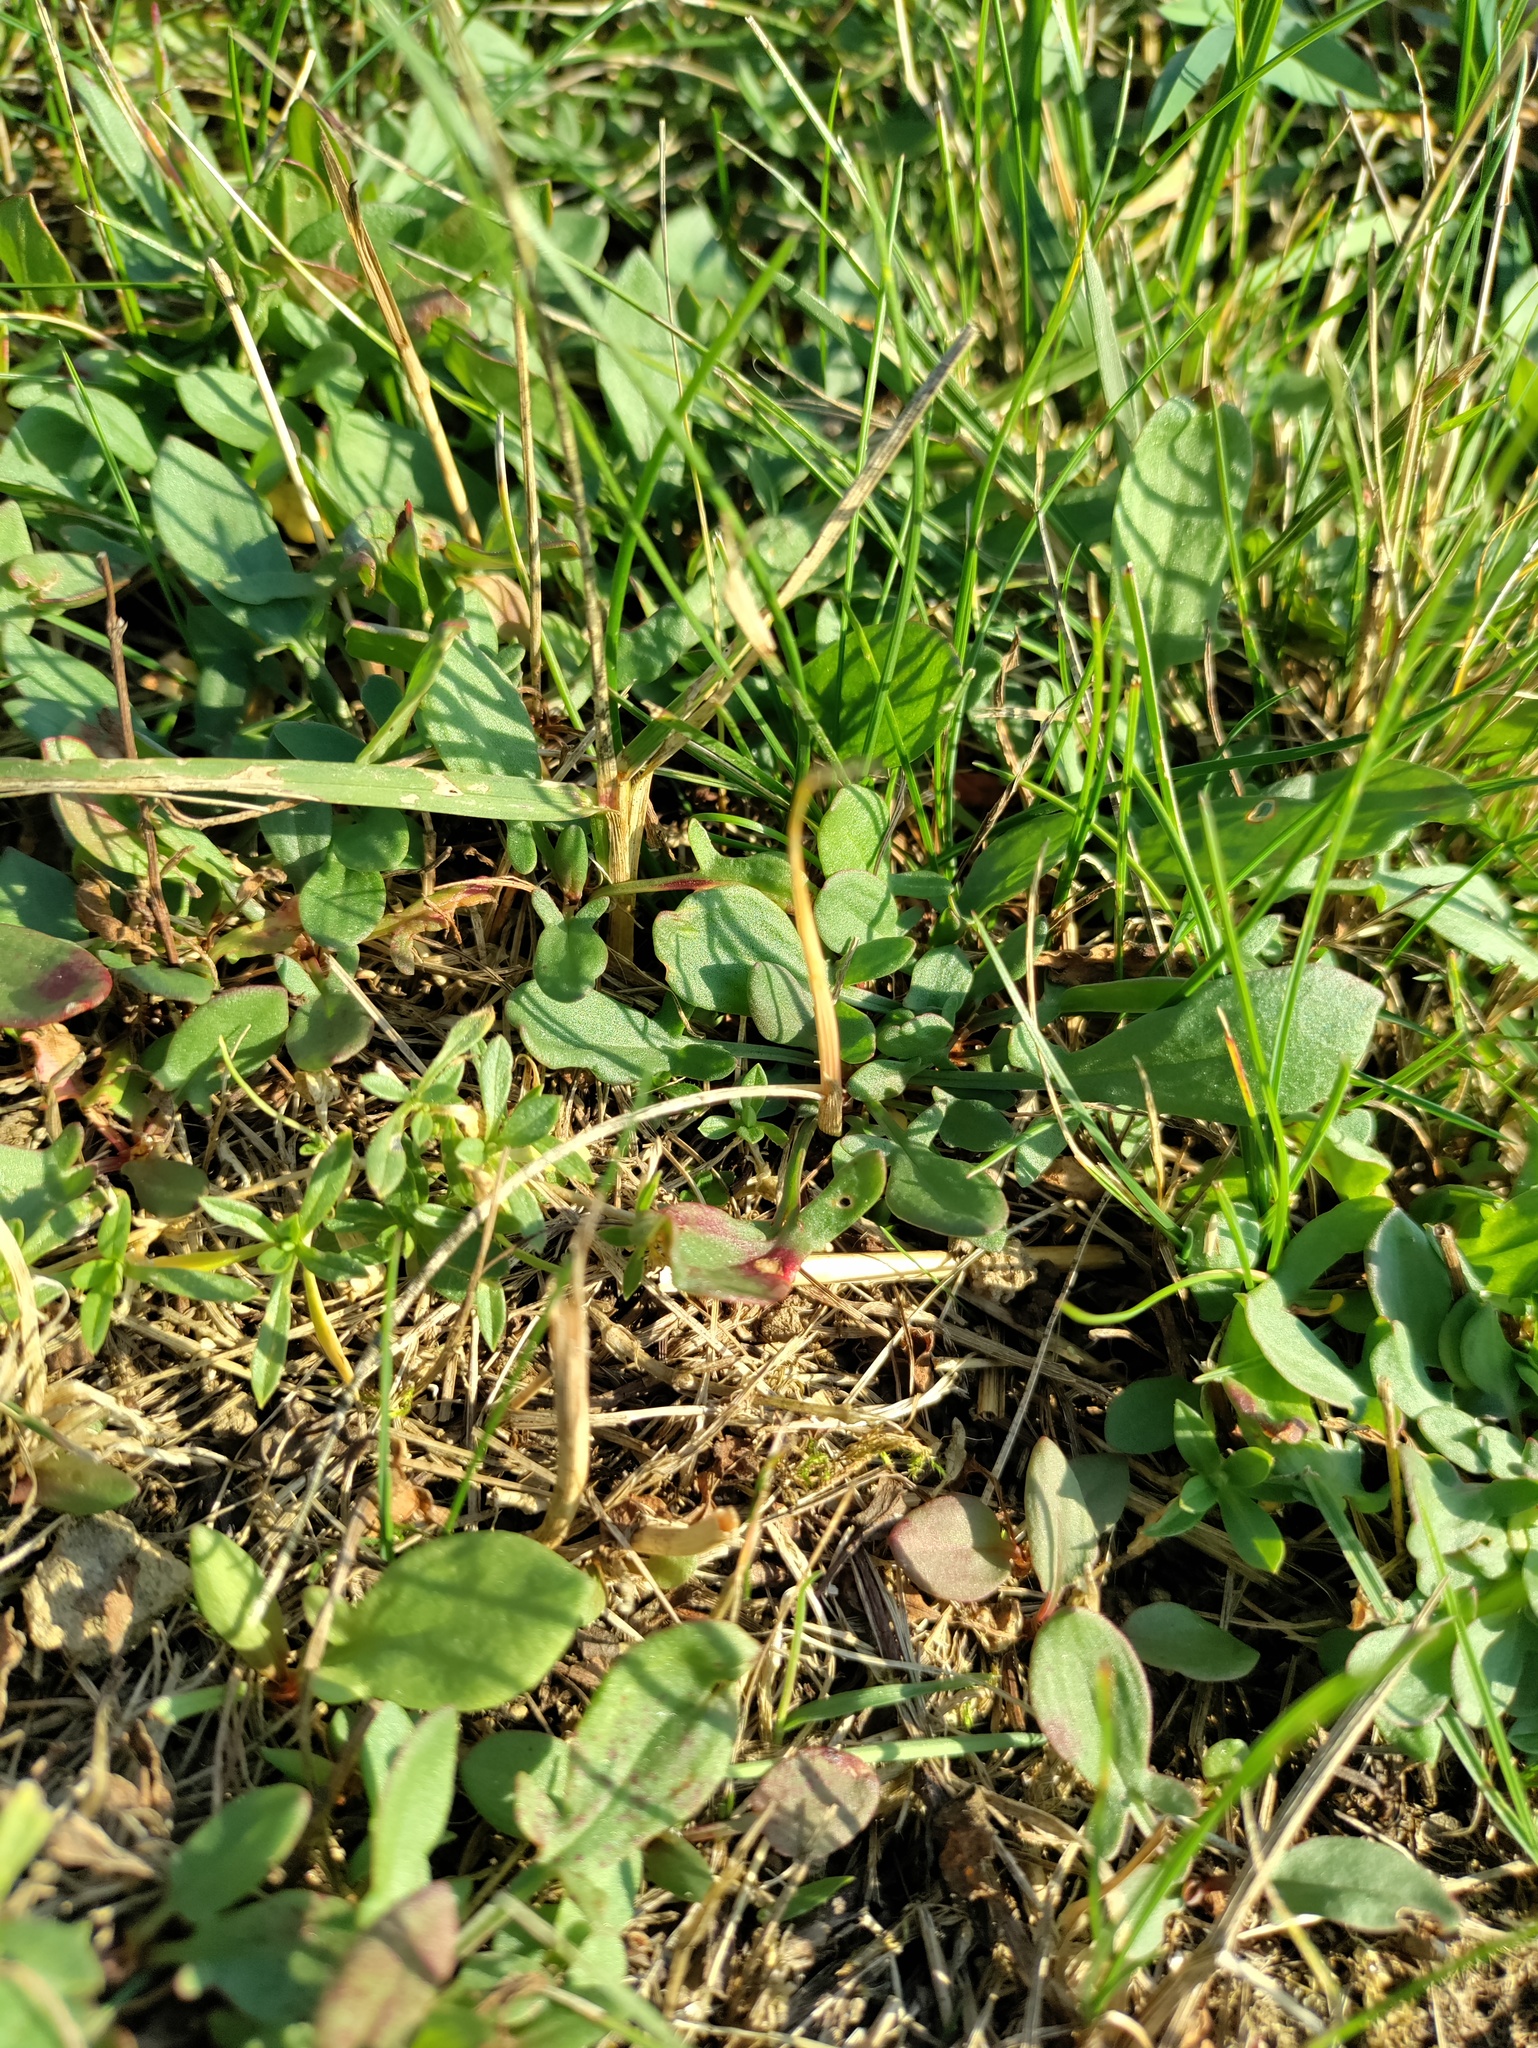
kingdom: Plantae
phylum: Tracheophyta
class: Magnoliopsida
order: Caryophyllales
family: Polygonaceae
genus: Rumex
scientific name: Rumex acetosella
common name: Common sheep sorrel
